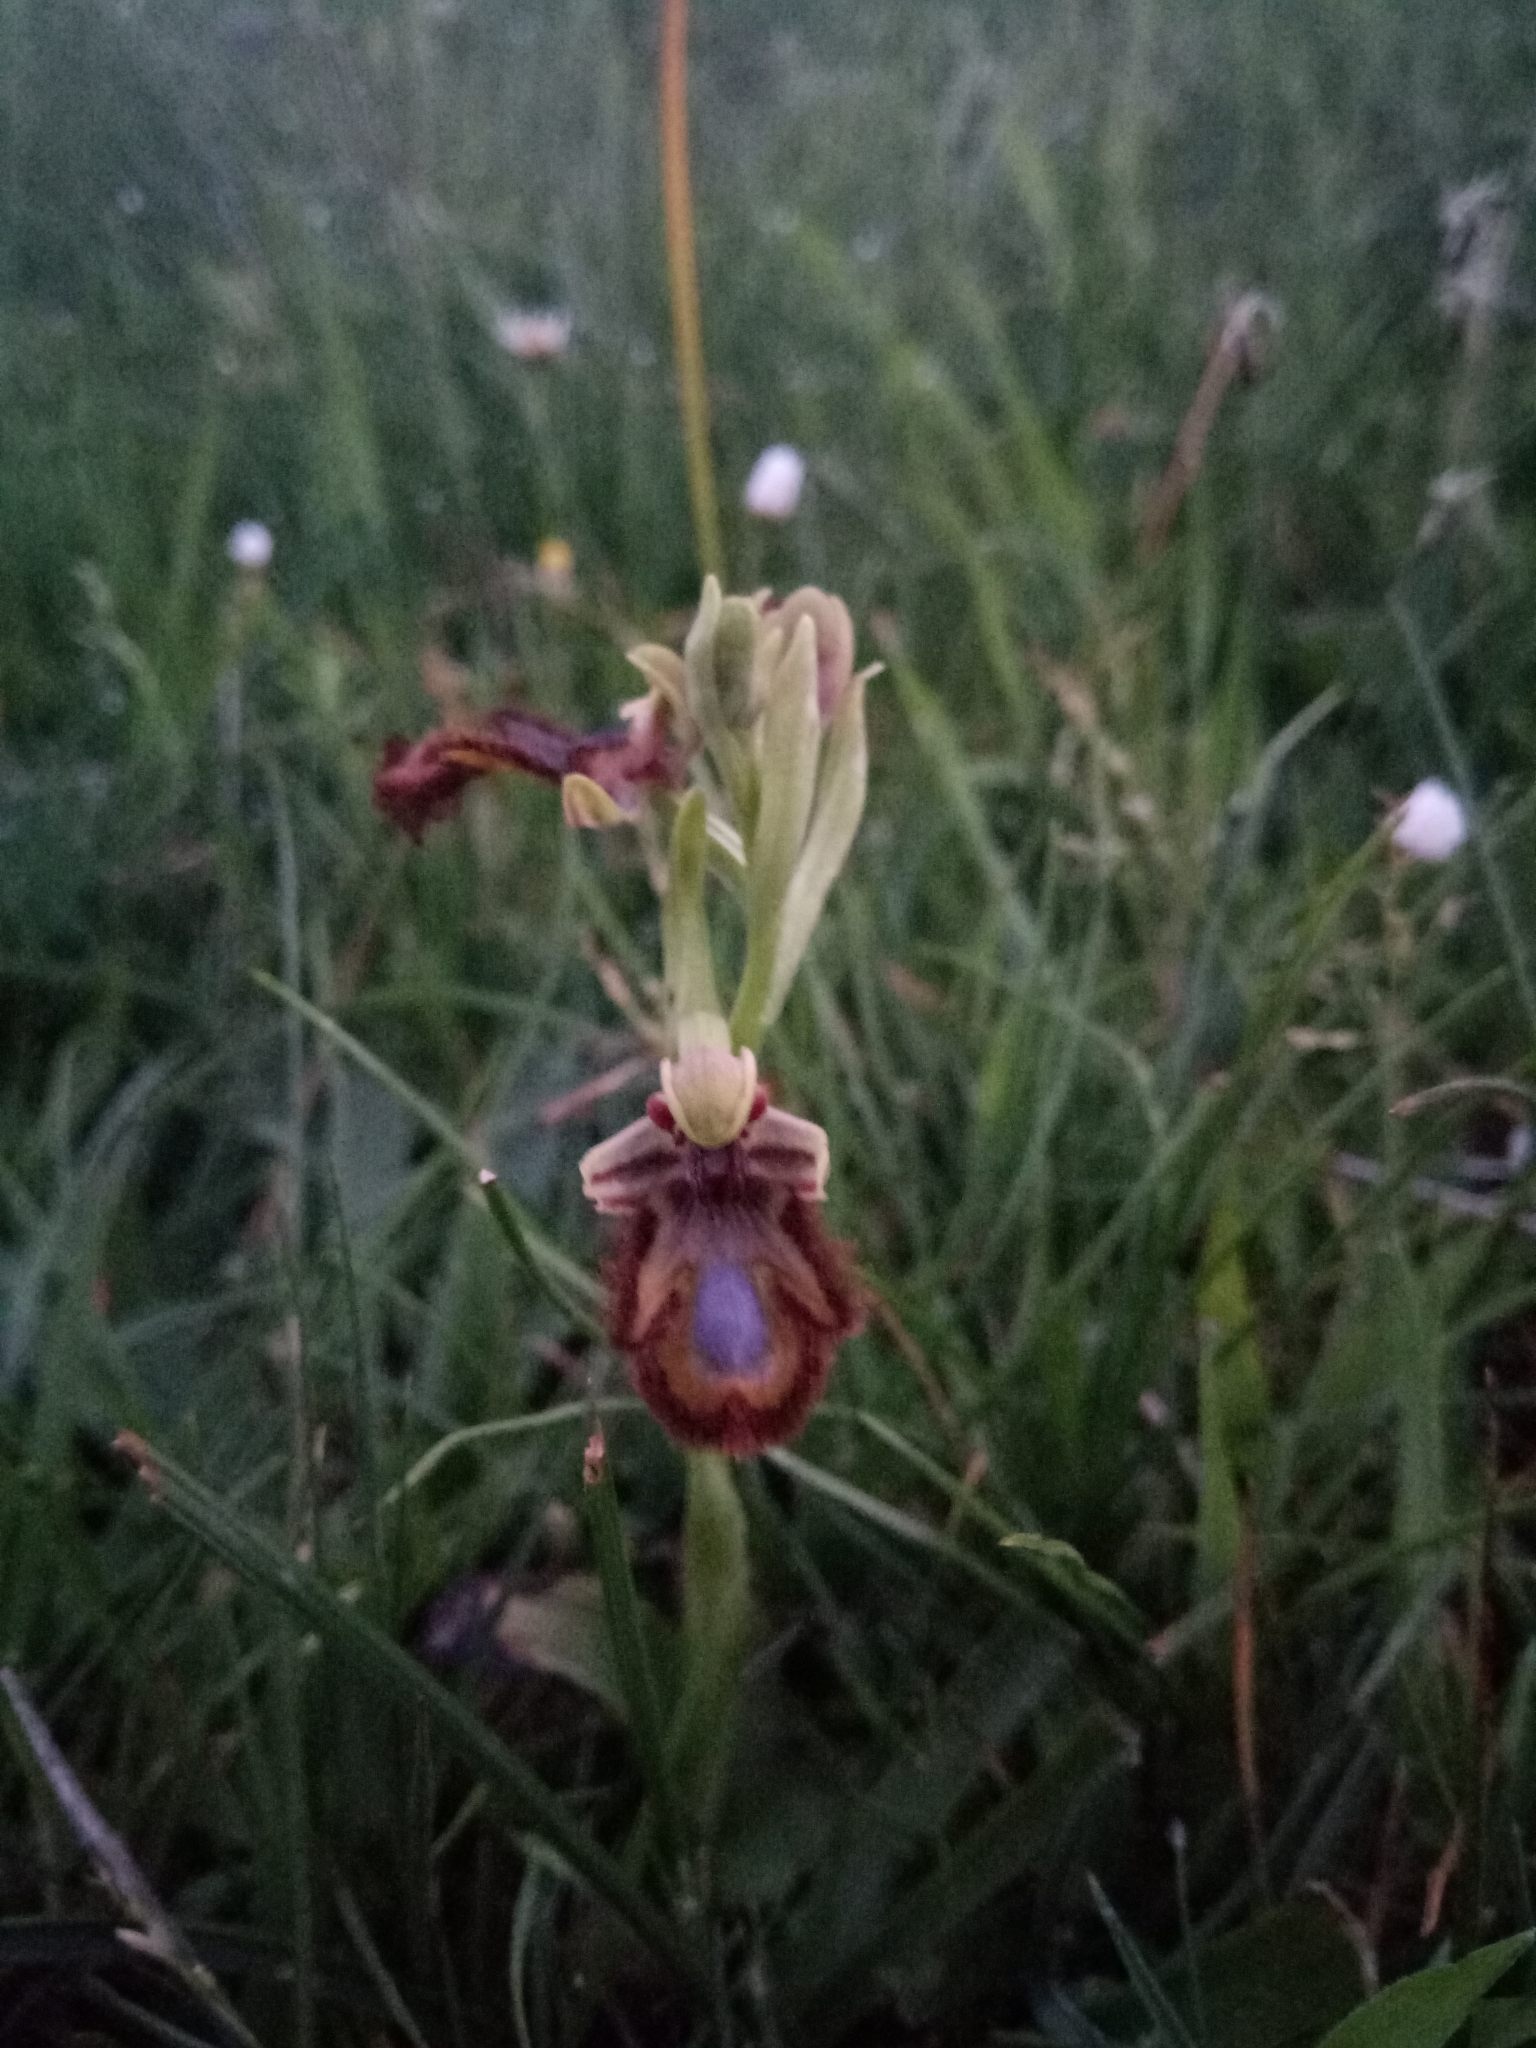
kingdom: Plantae
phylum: Tracheophyta
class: Liliopsida
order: Asparagales
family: Orchidaceae
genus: Ophrys
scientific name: Ophrys speculum
